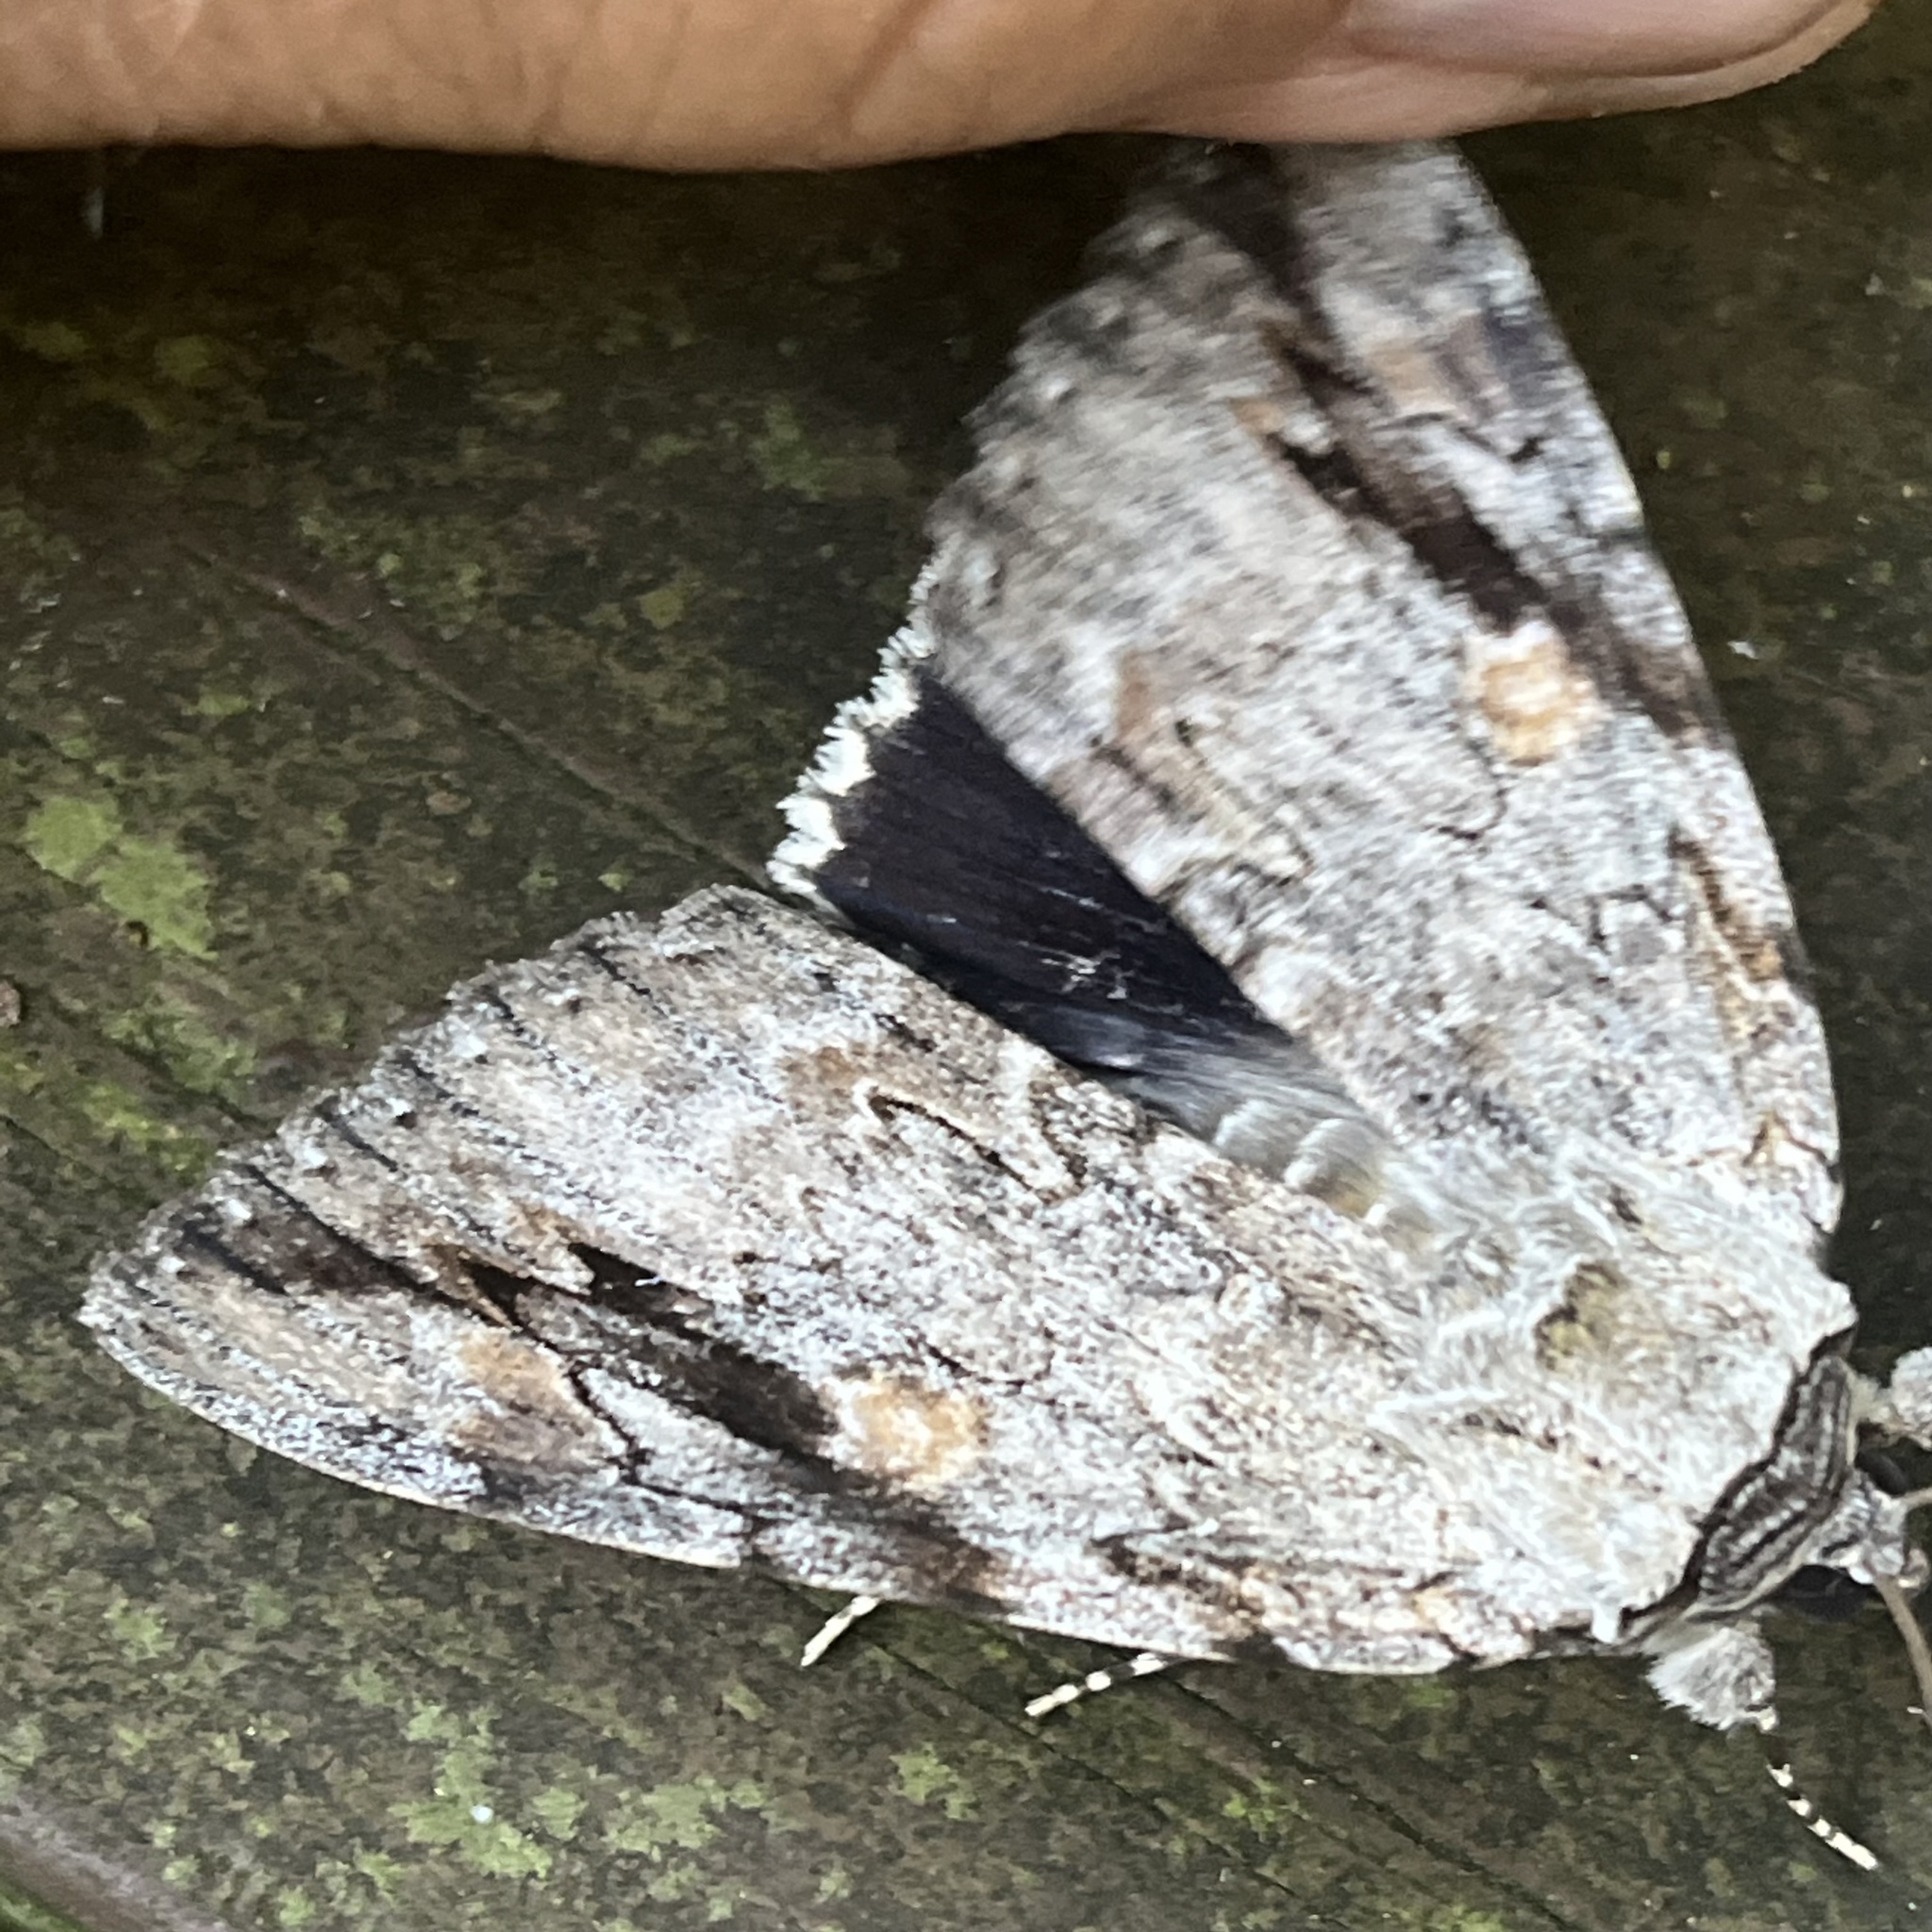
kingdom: Animalia
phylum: Arthropoda
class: Insecta
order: Lepidoptera
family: Erebidae
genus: Catocala
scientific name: Catocala maestosa
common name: Sad underwing
